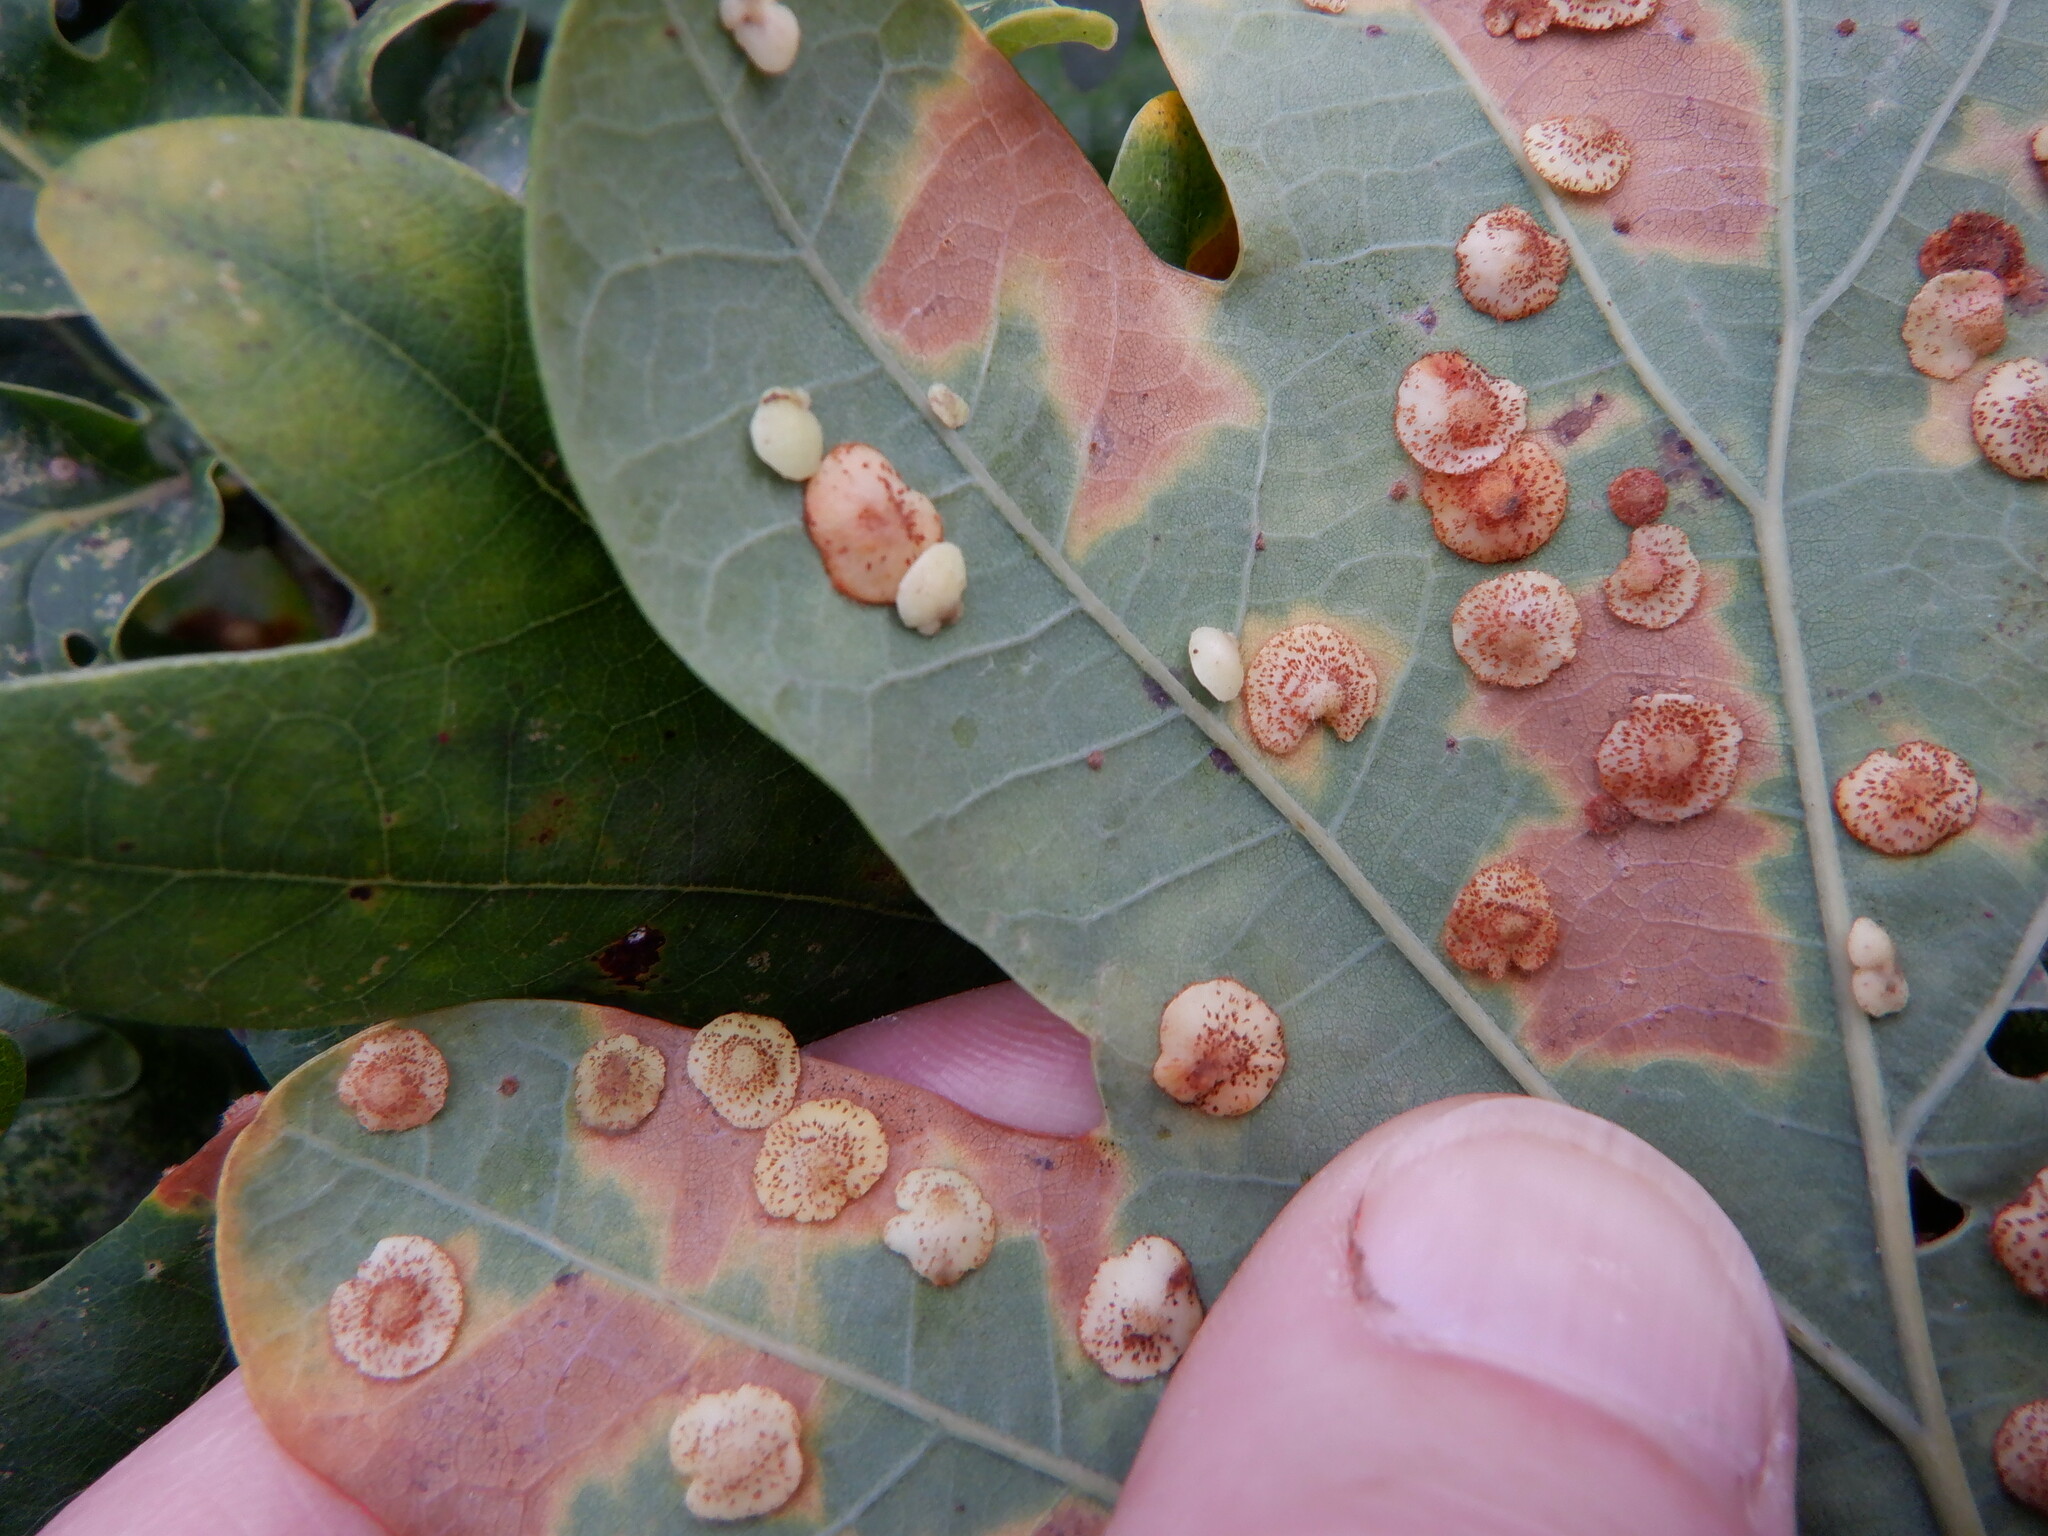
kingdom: Animalia
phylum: Arthropoda
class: Insecta
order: Hymenoptera
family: Cynipidae
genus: Neuroterus
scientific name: Neuroterus quercusbaccarum
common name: Common spangle gall
